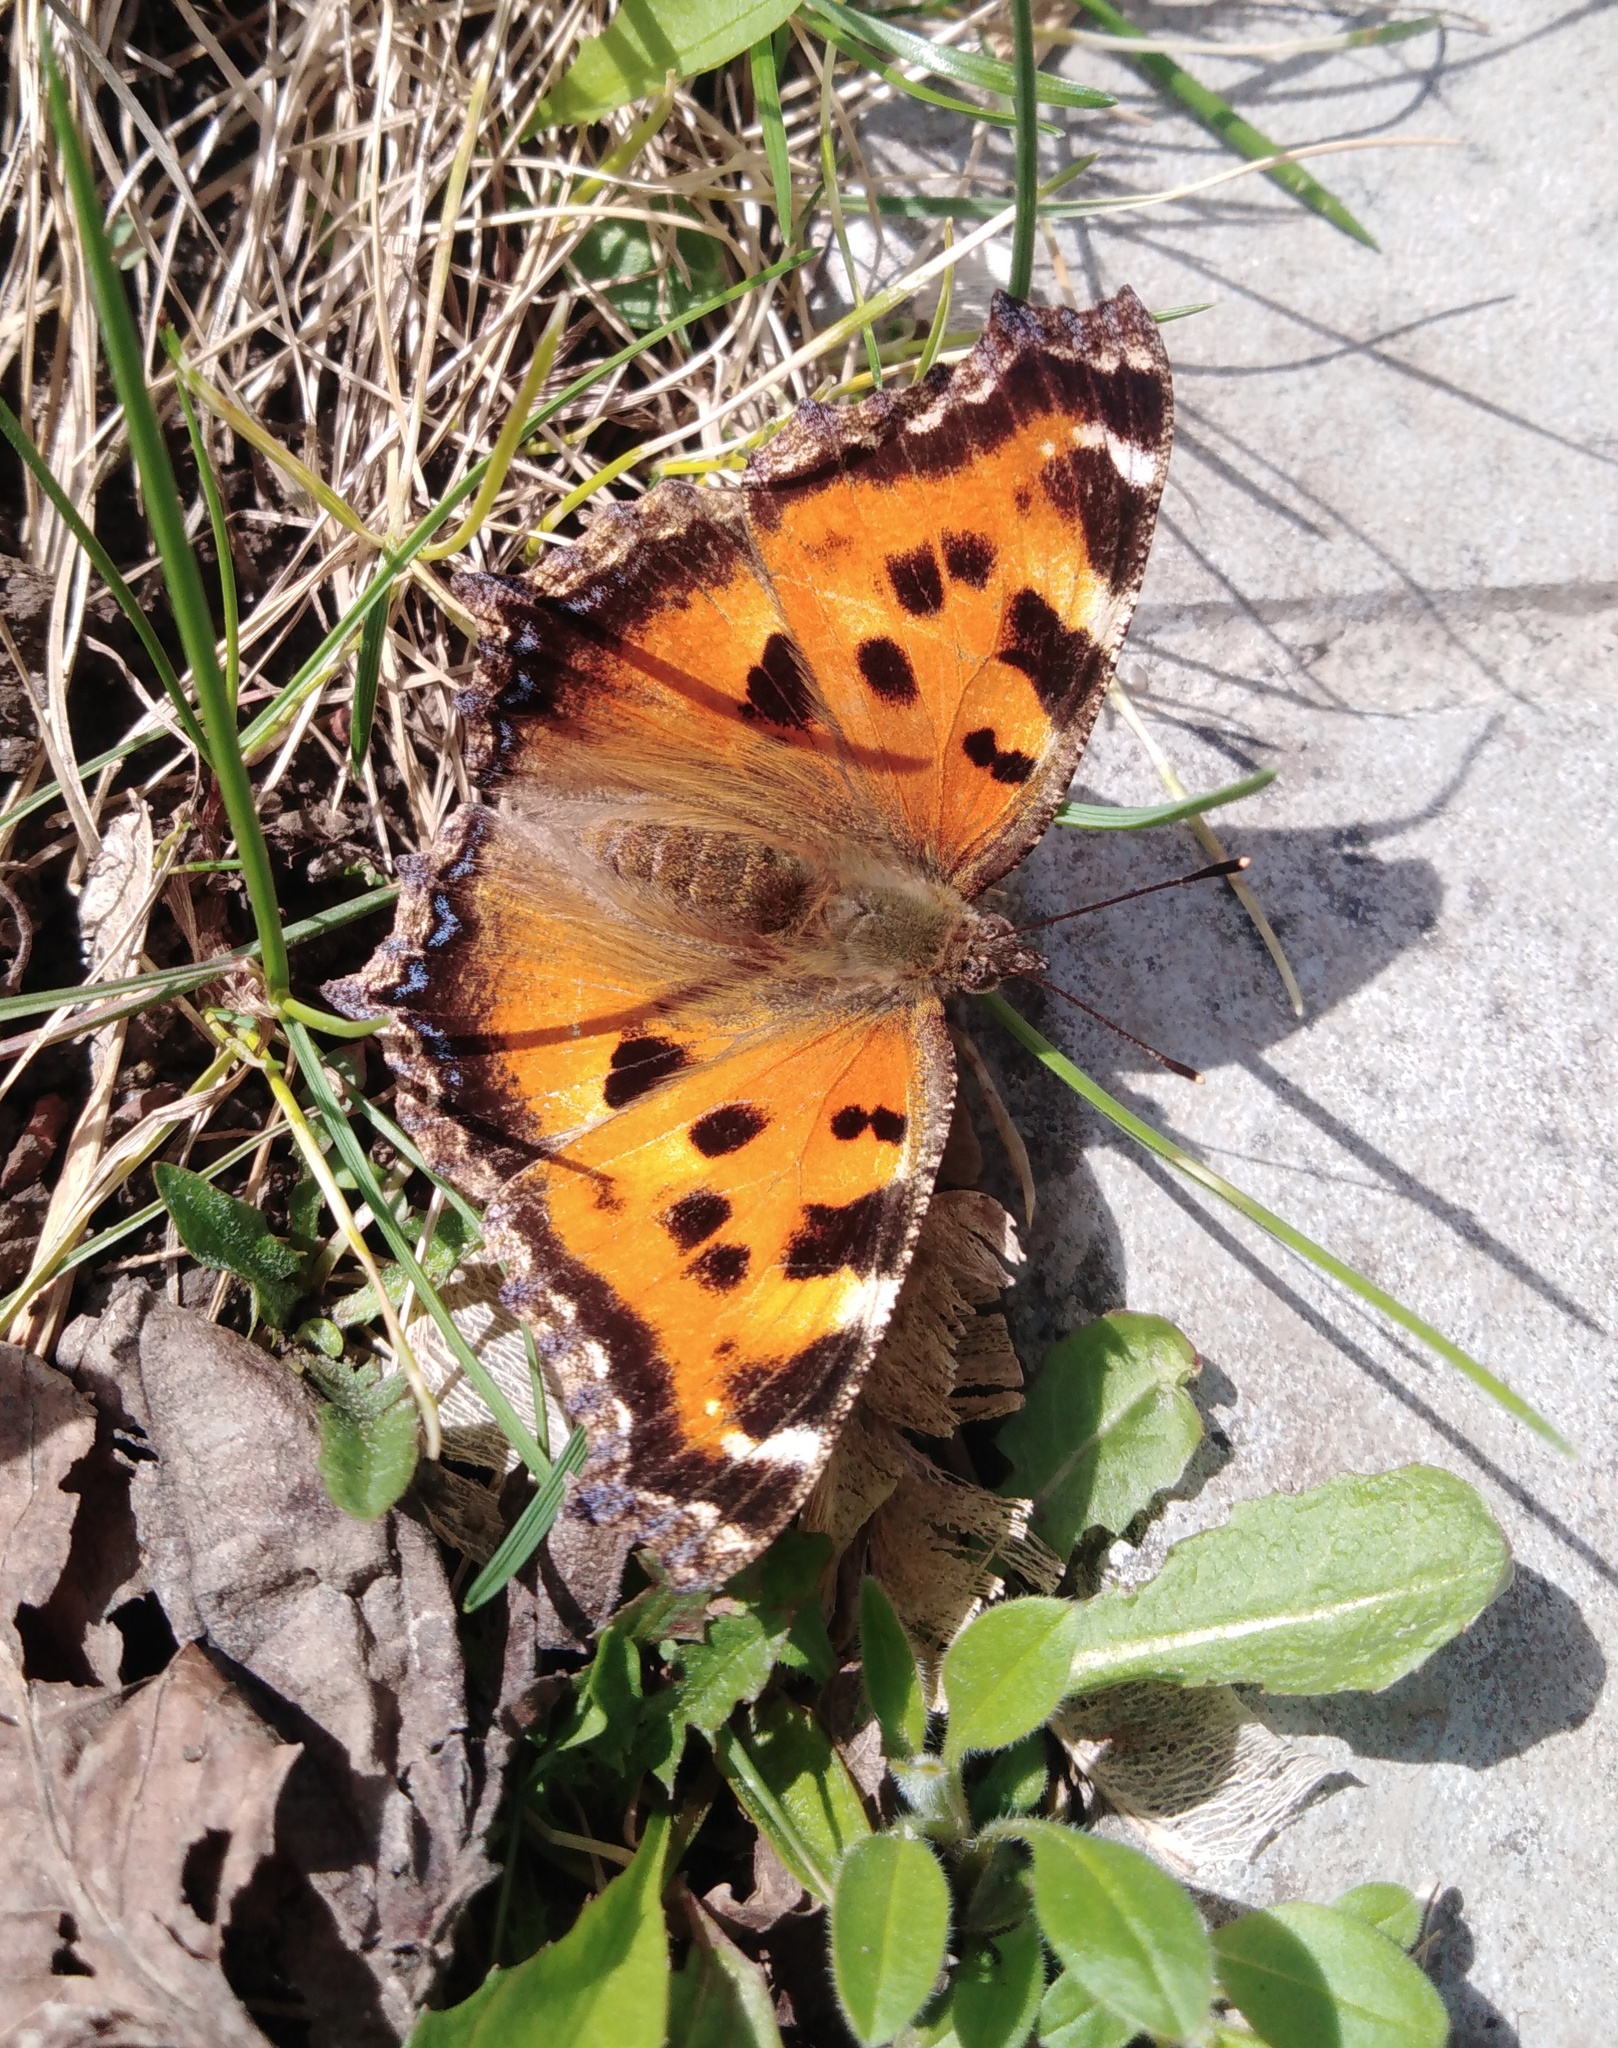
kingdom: Animalia
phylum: Arthropoda
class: Insecta
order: Lepidoptera
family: Nymphalidae
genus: Nymphalis
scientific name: Nymphalis xanthomelas
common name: Scarce tortoiseshell
